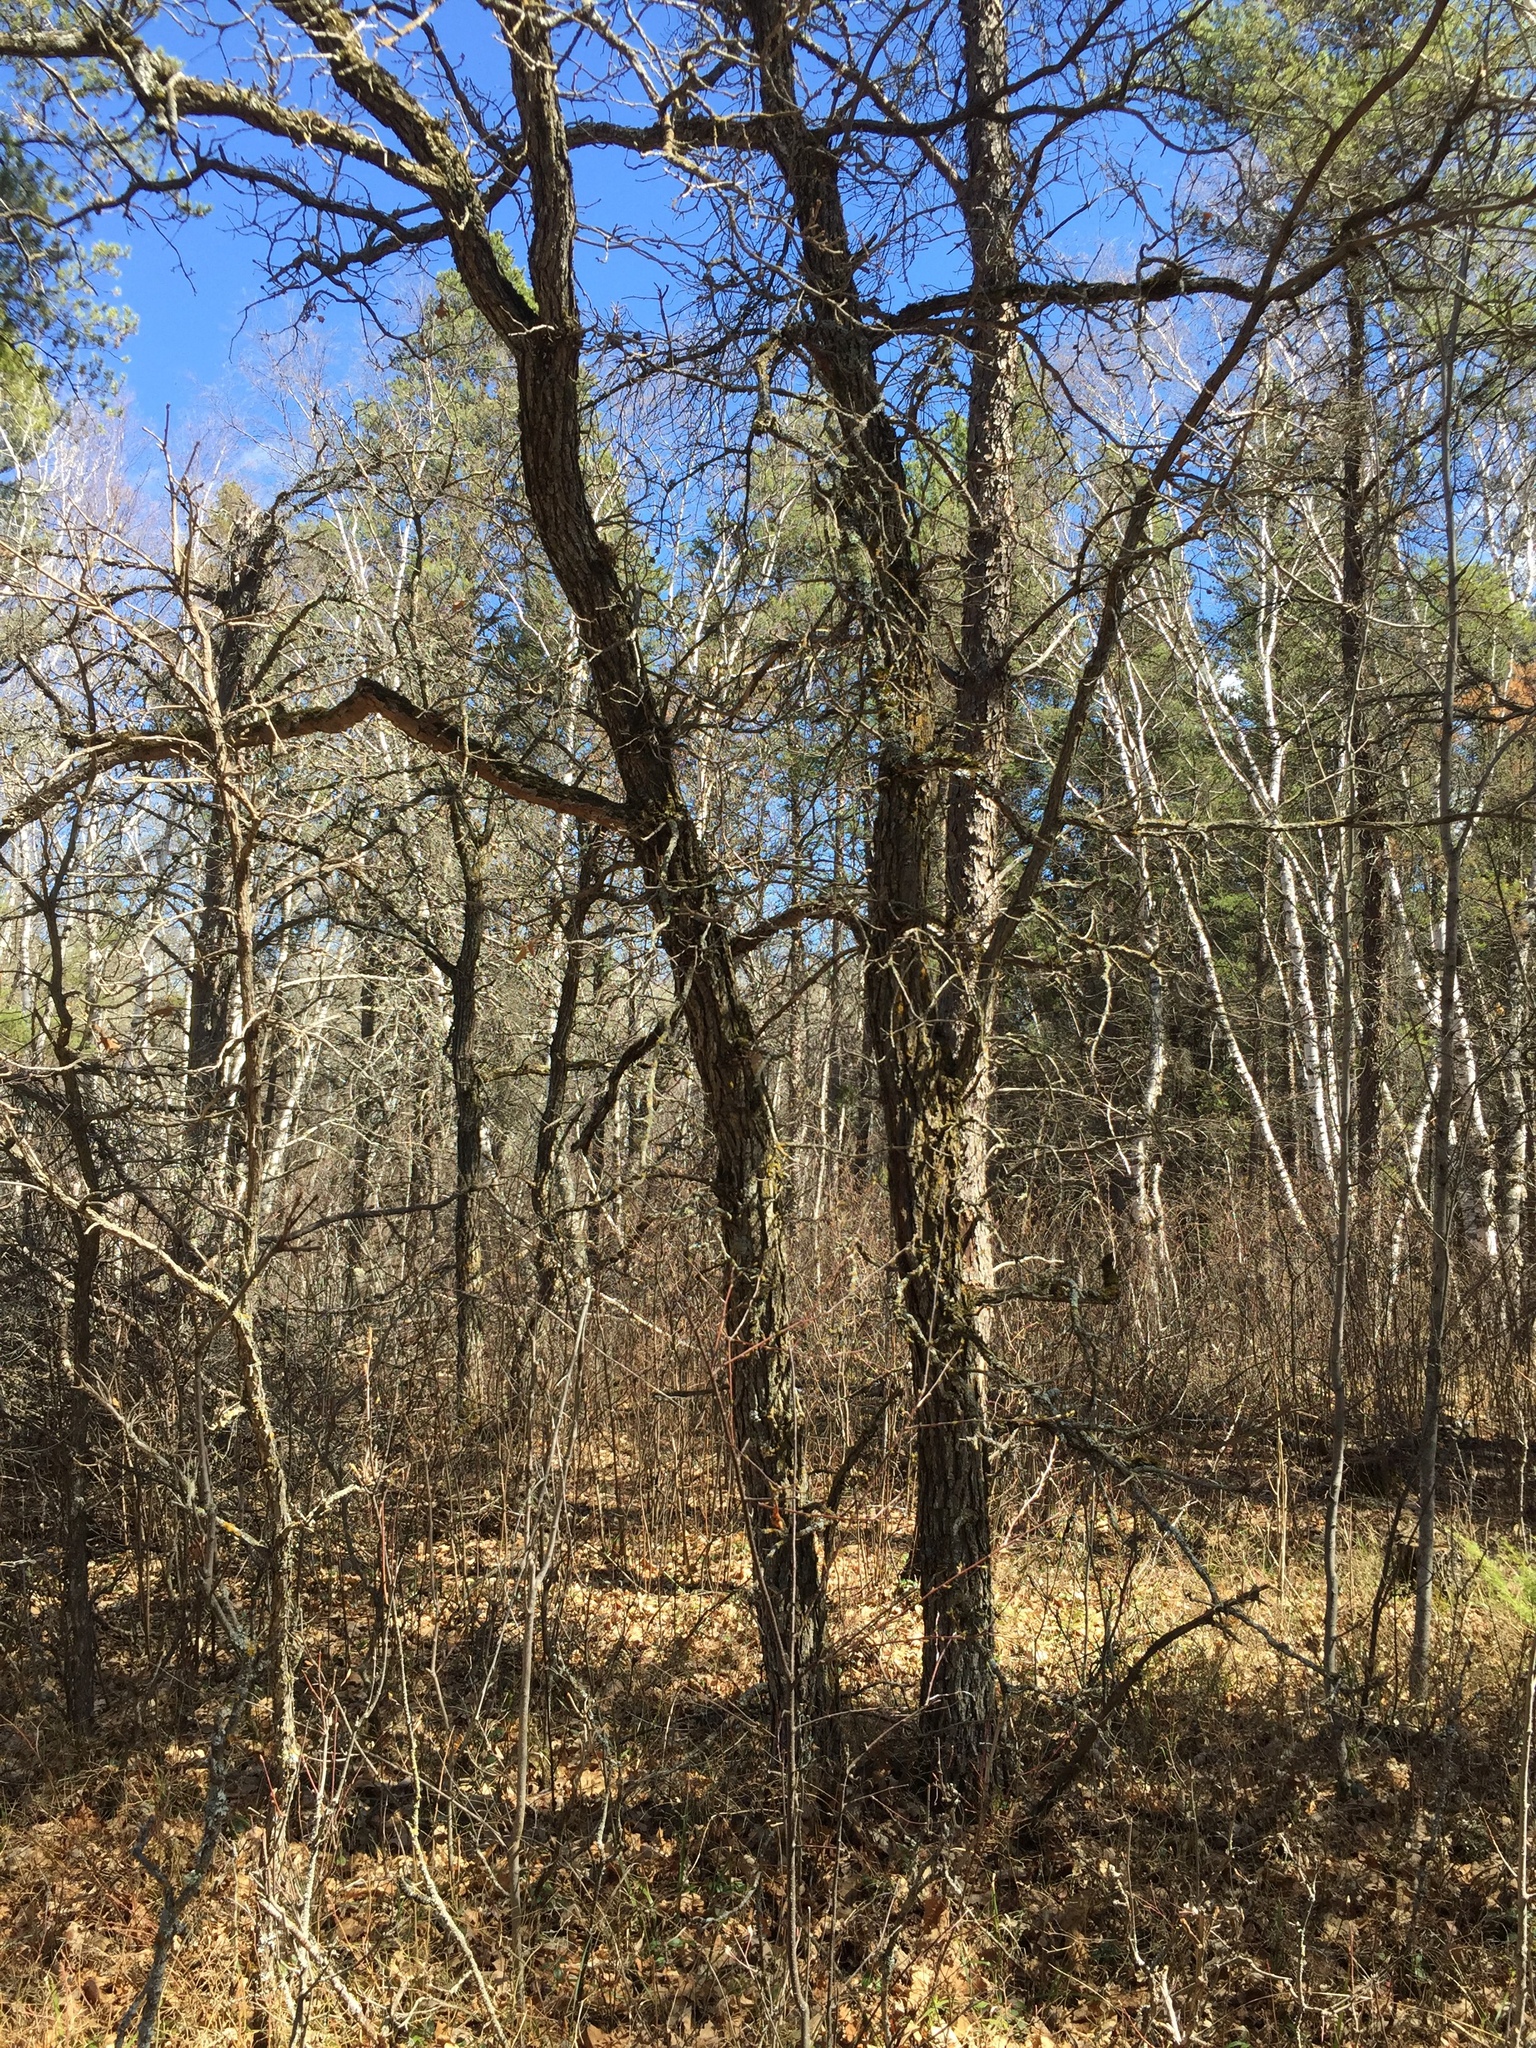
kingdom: Plantae
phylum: Tracheophyta
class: Magnoliopsida
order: Fagales
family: Fagaceae
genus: Quercus
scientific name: Quercus macrocarpa
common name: Bur oak
